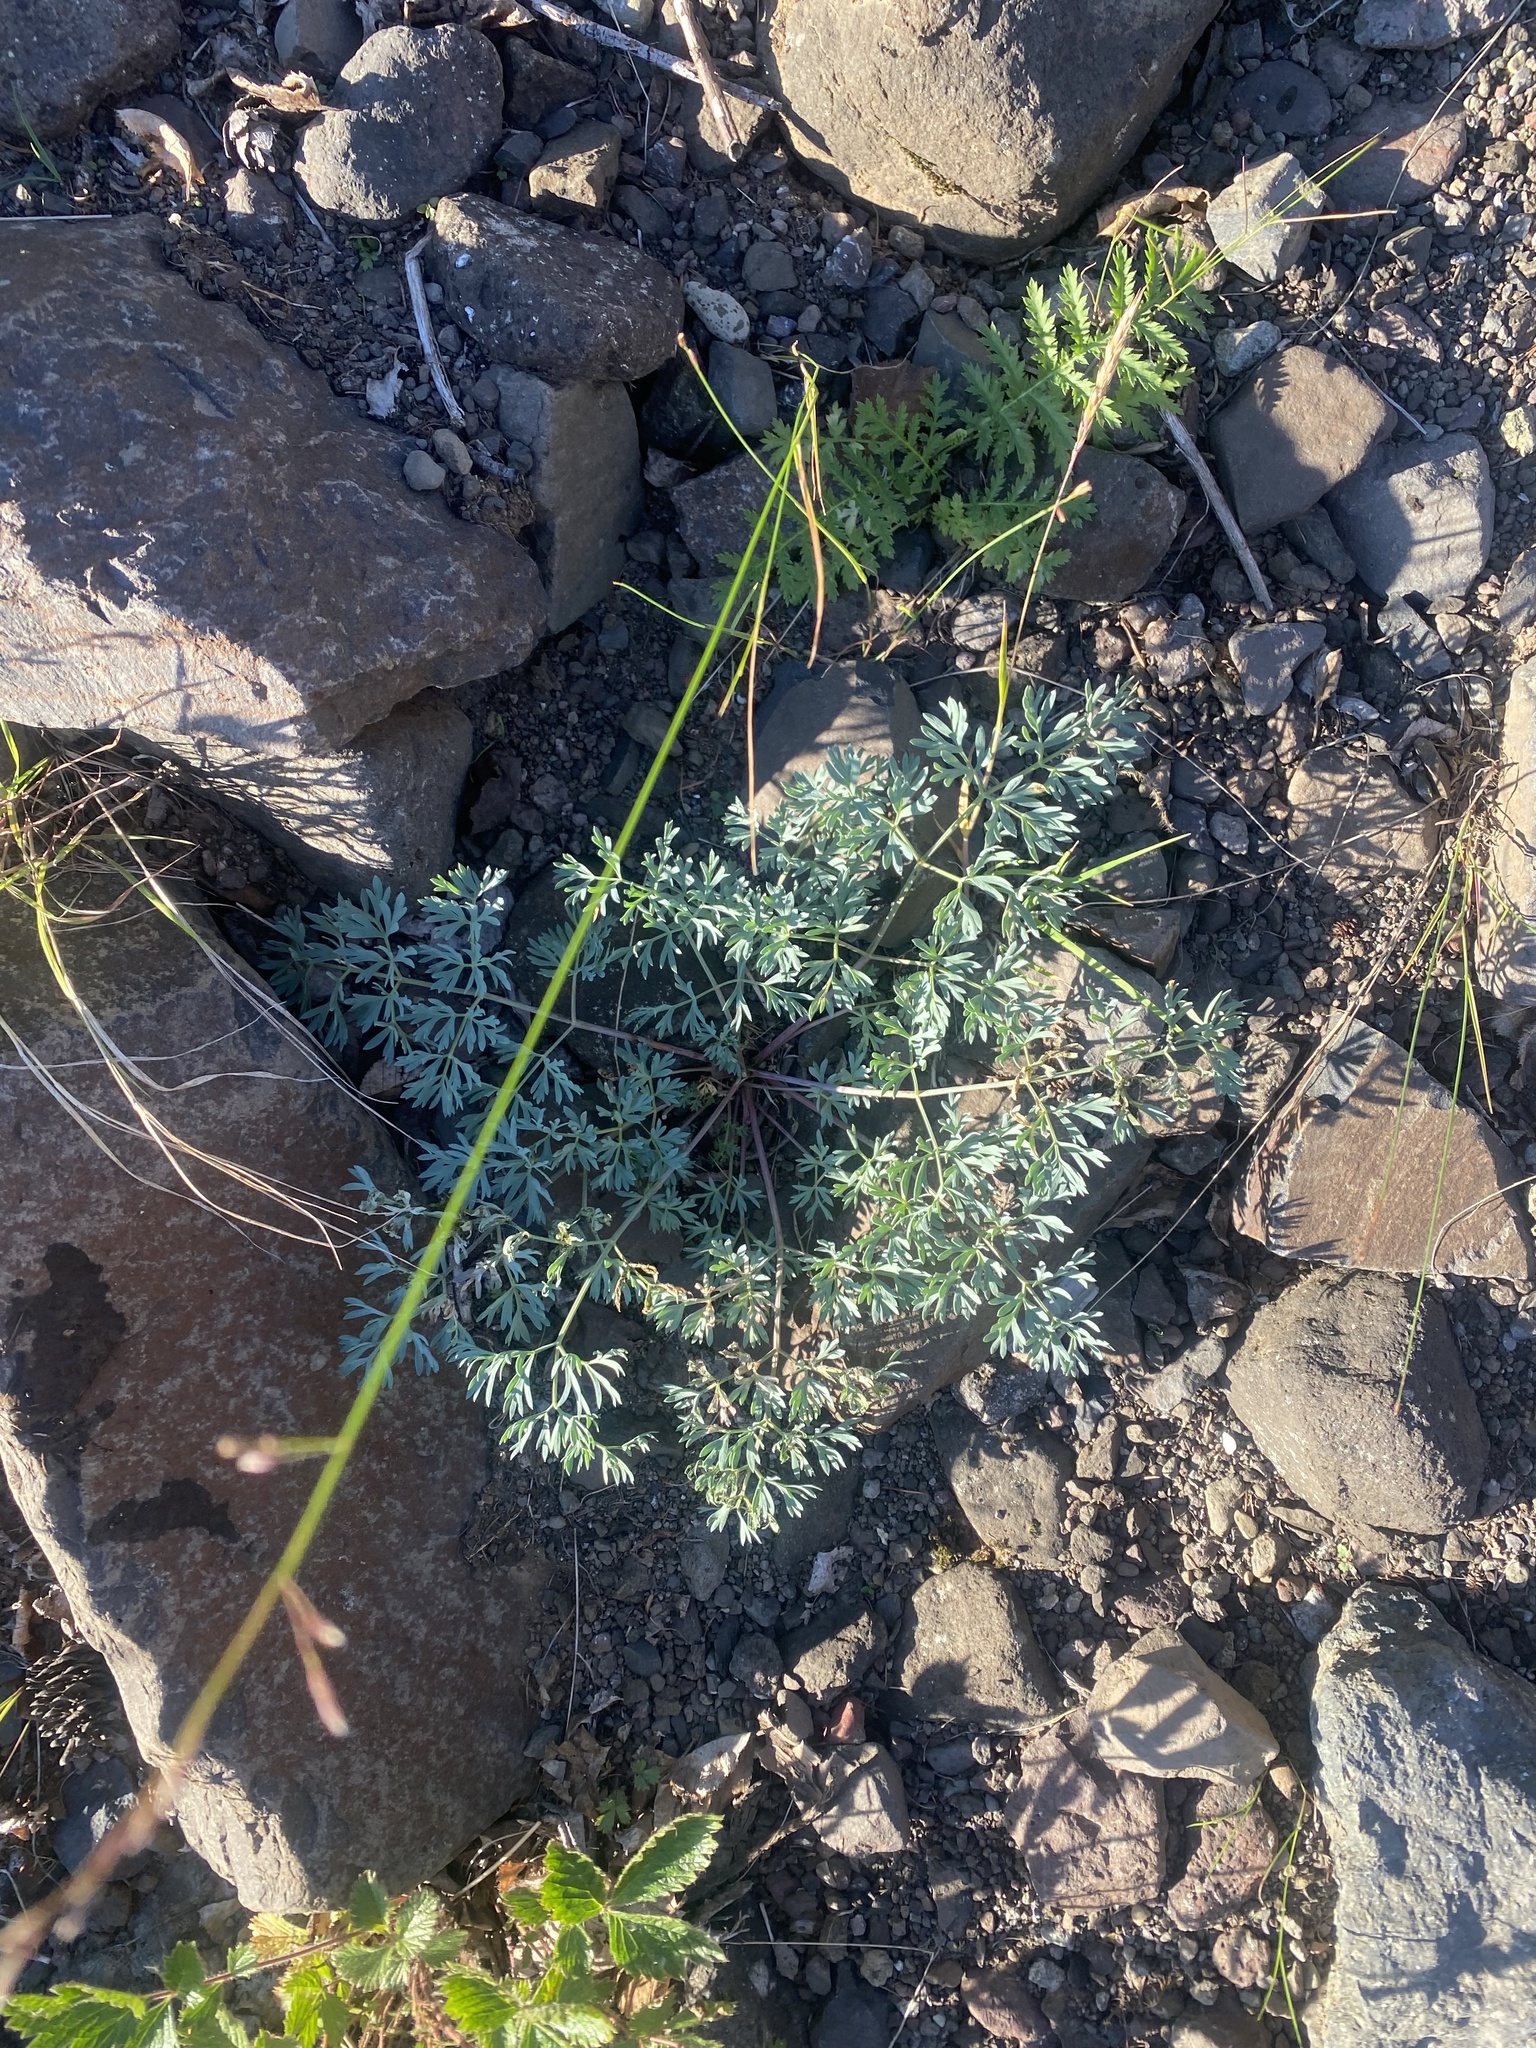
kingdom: Plantae
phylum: Tracheophyta
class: Magnoliopsida
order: Apiales
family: Apiaceae
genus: Pachypleurum
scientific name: Pachypleurum mutellinoides
